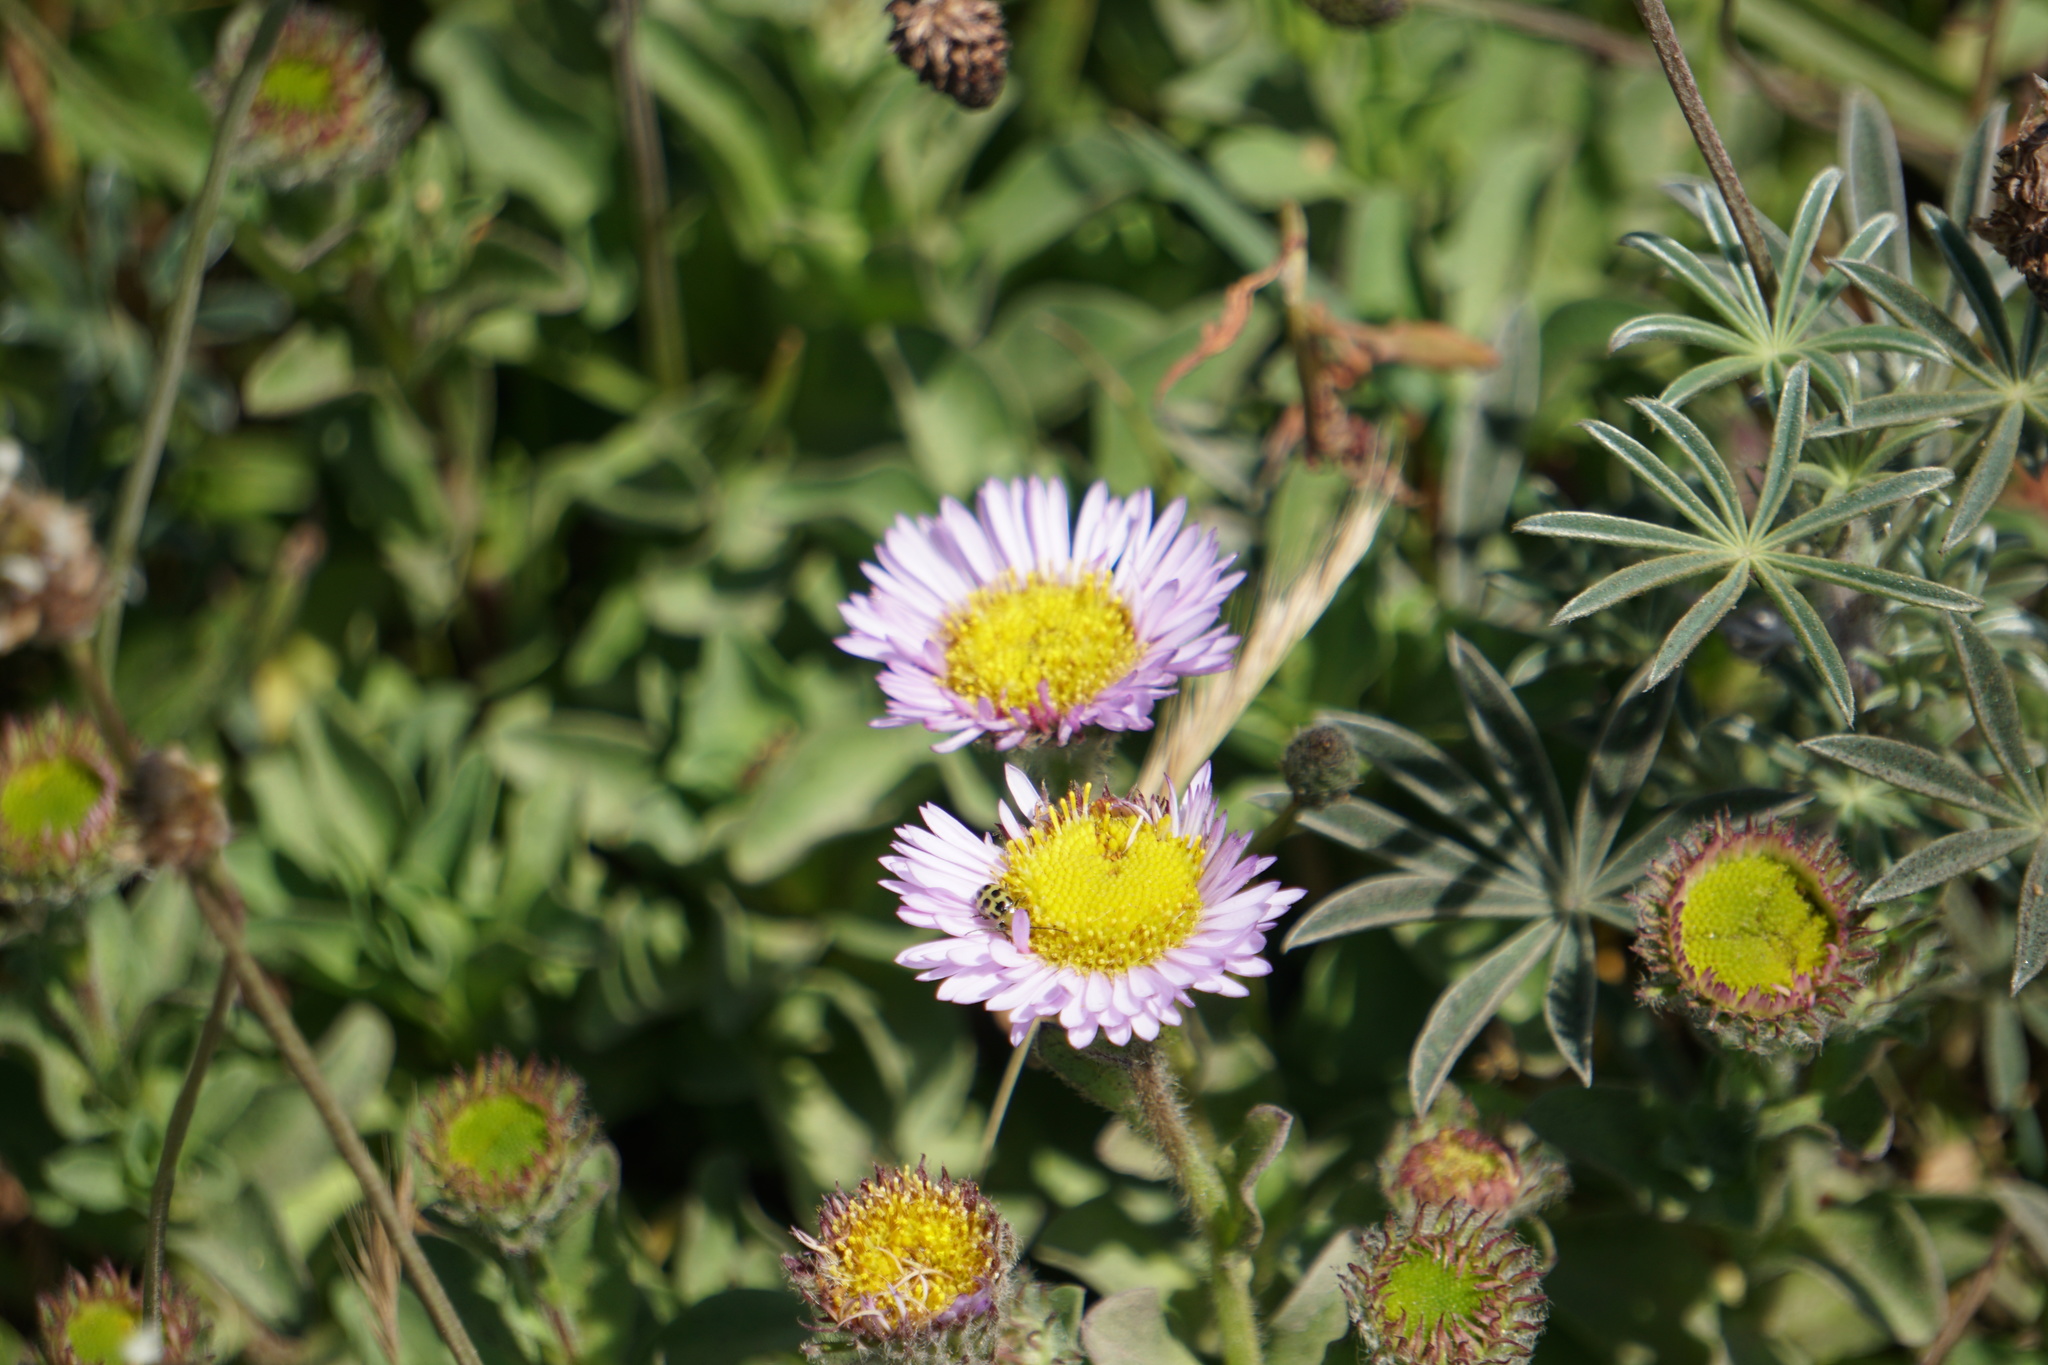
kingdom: Plantae
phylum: Tracheophyta
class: Magnoliopsida
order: Asterales
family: Asteraceae
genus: Erigeron
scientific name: Erigeron glaucus
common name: Seaside daisy
